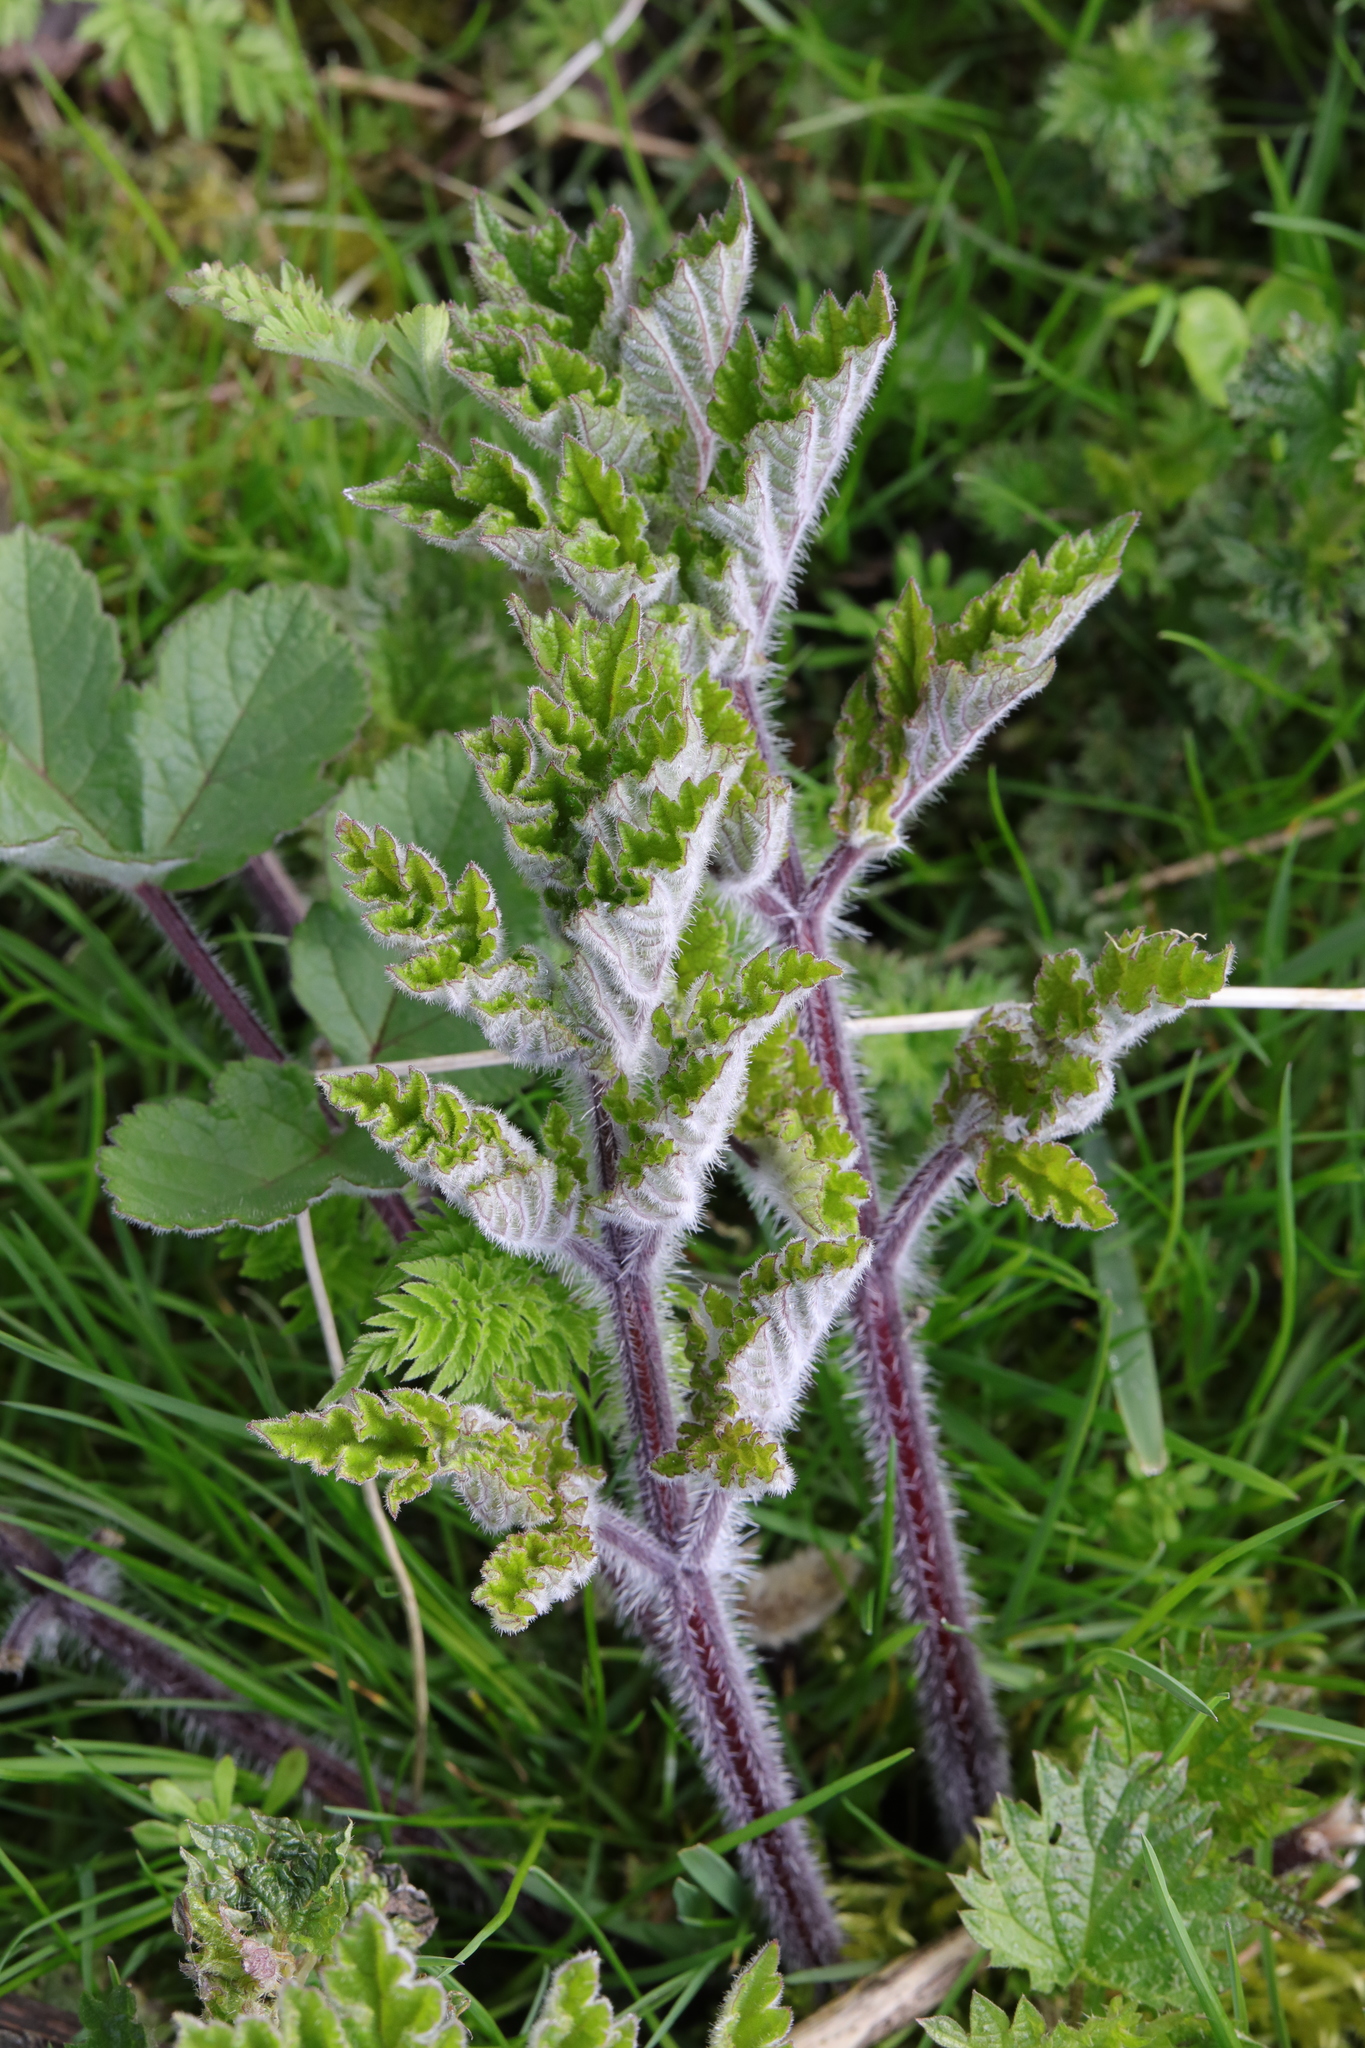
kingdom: Plantae
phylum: Tracheophyta
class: Magnoliopsida
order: Apiales
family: Apiaceae
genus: Heracleum
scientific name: Heracleum sphondylium
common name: Hogweed
